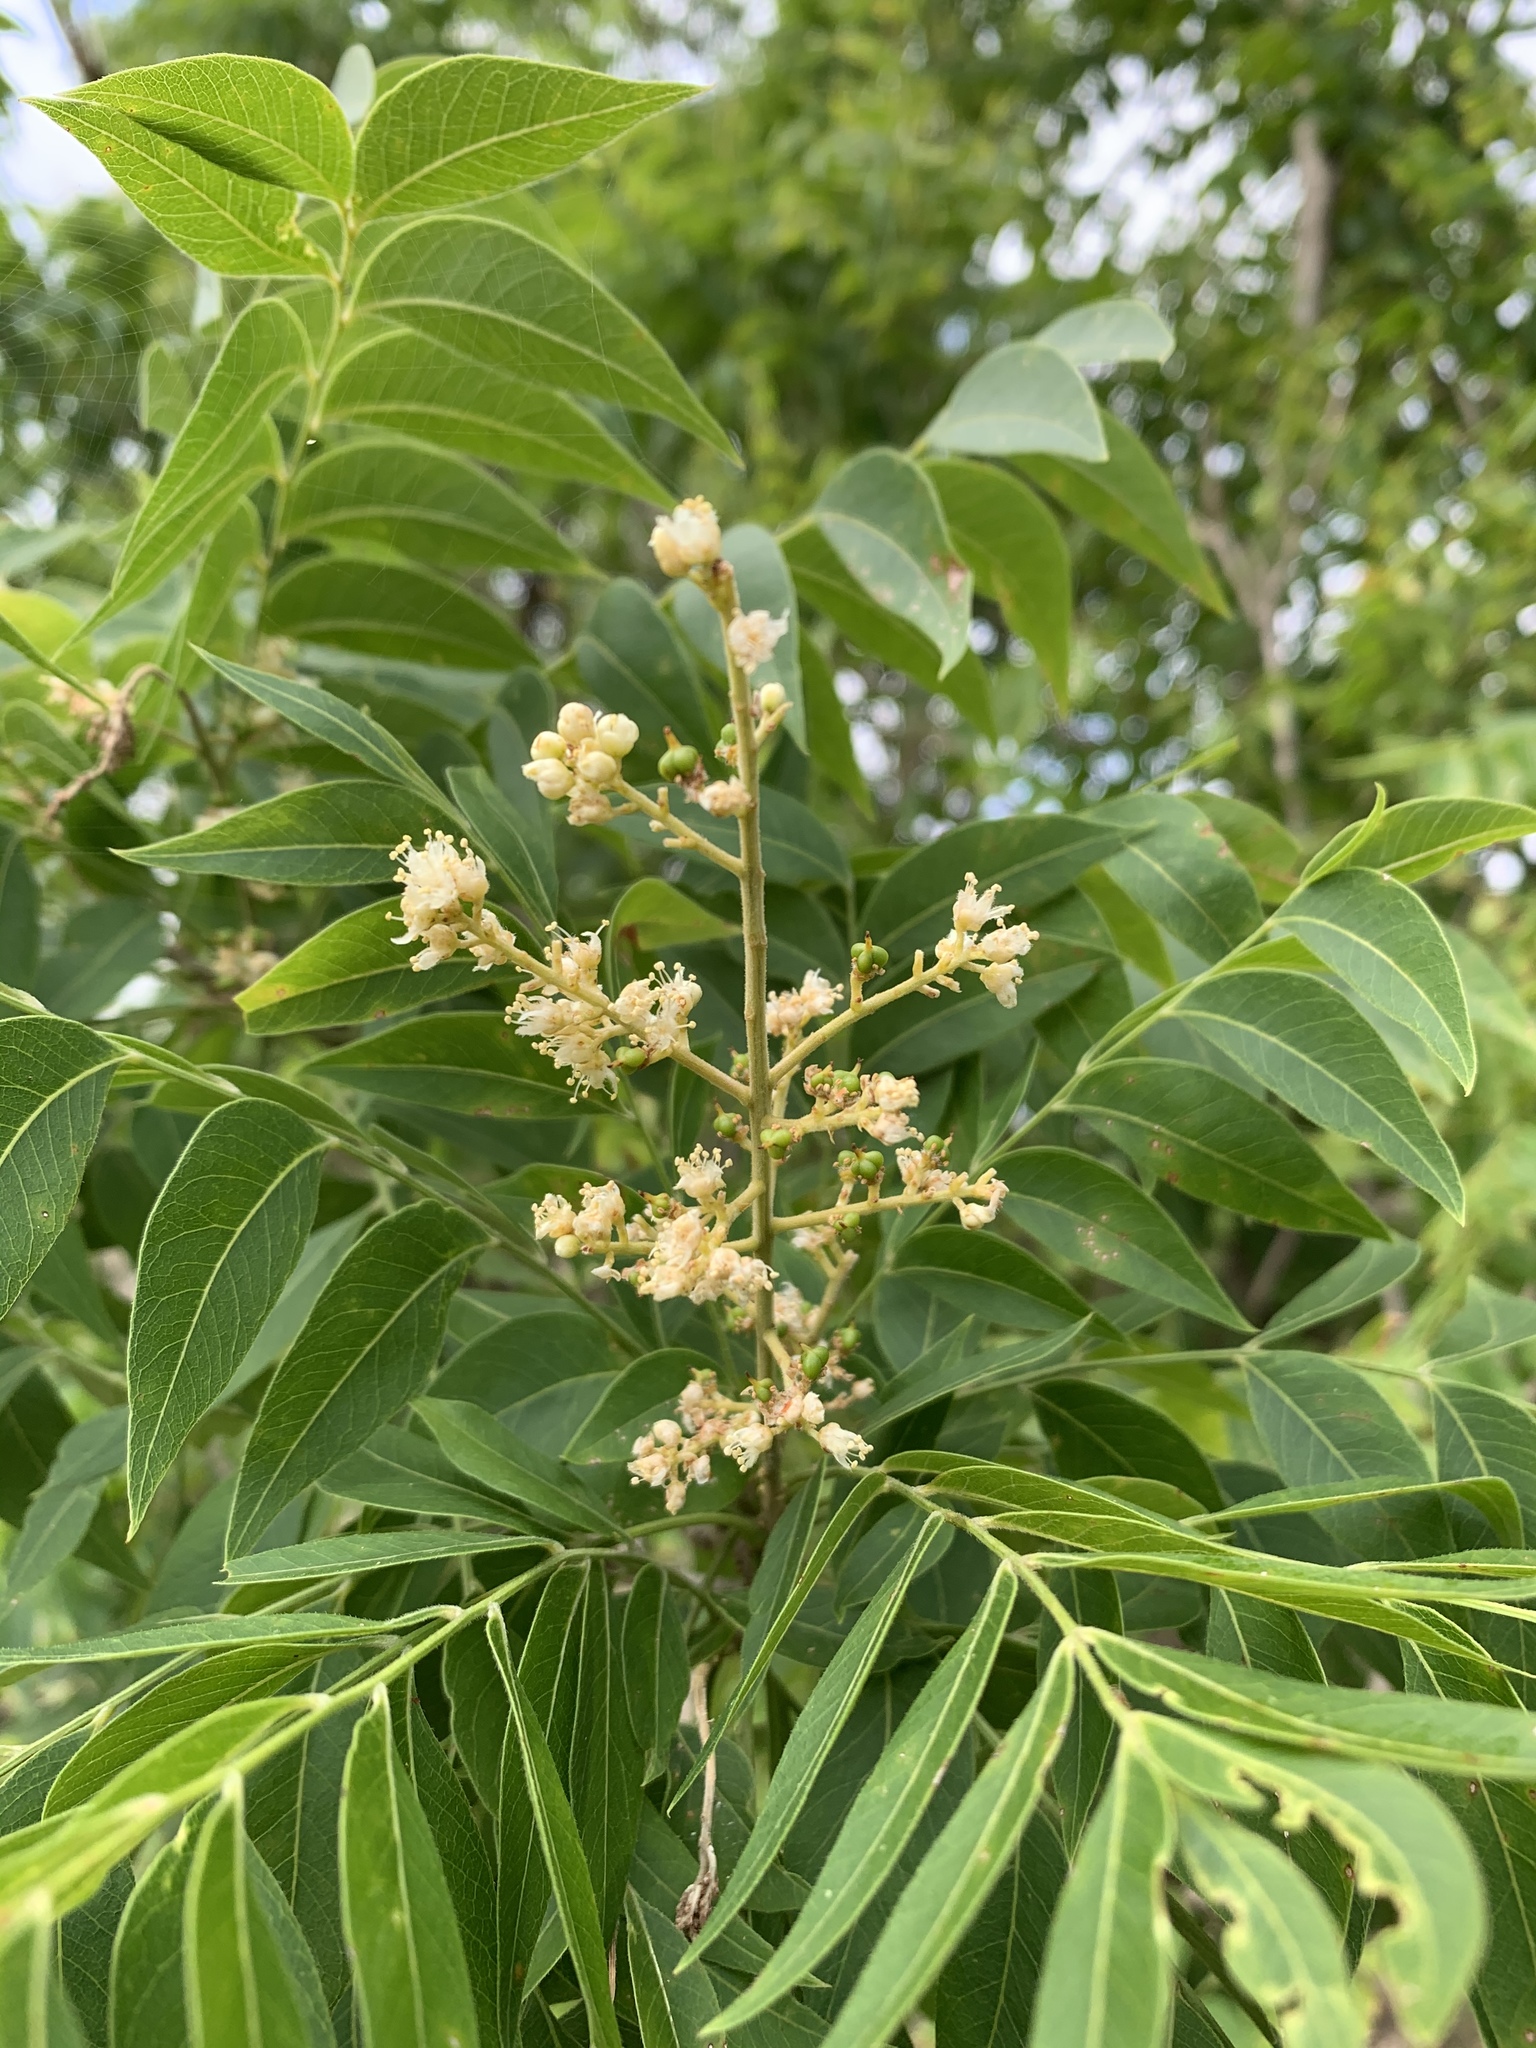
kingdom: Plantae
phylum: Tracheophyta
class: Magnoliopsida
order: Sapindales
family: Sapindaceae
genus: Sapindus
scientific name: Sapindus drummondii
